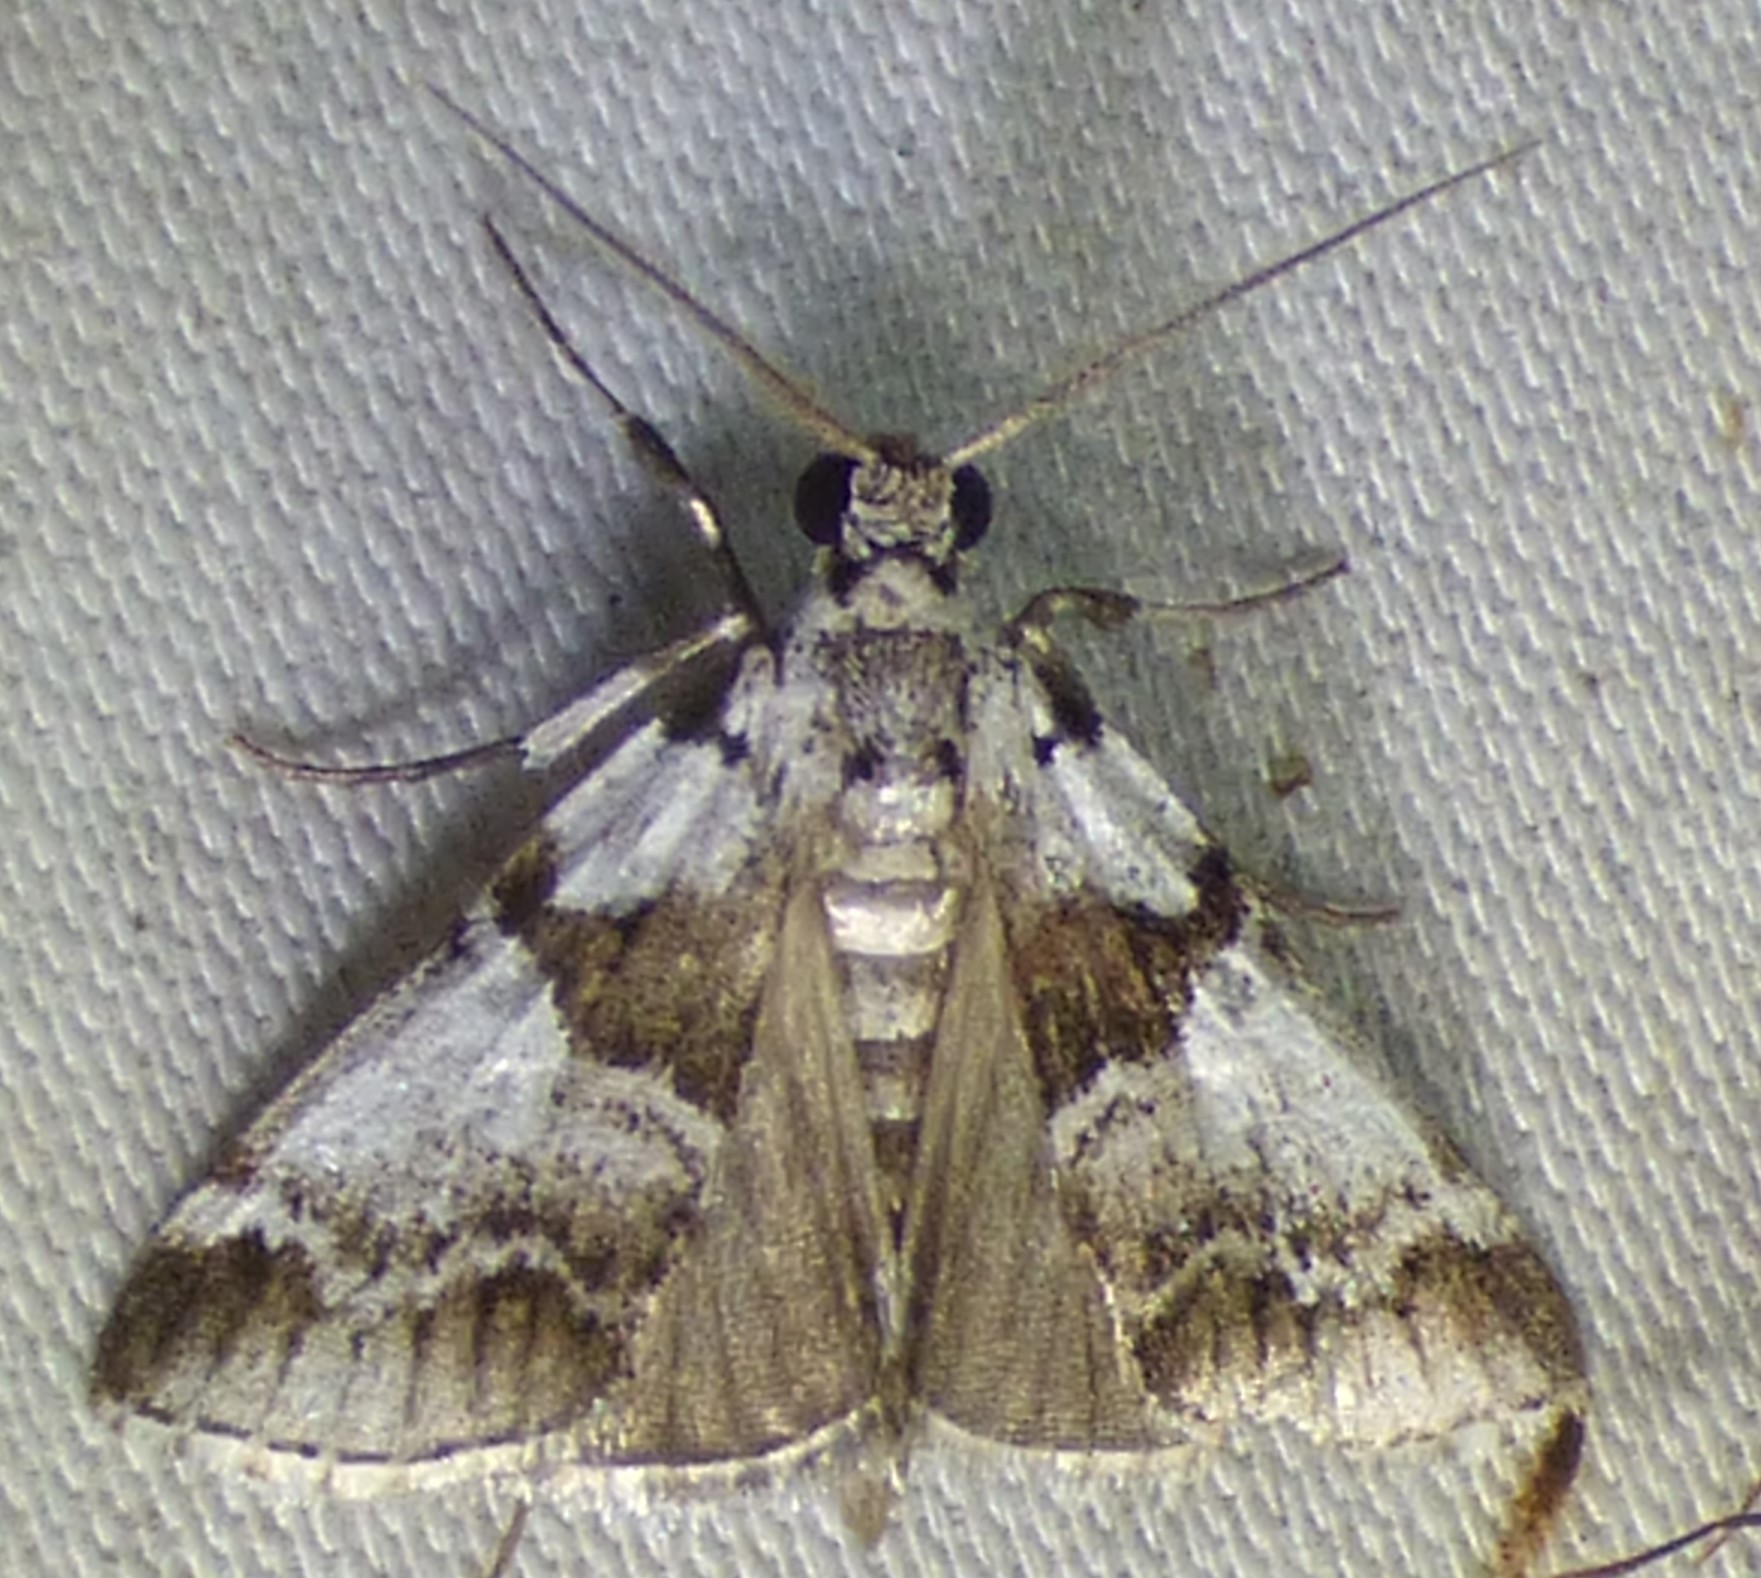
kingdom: Animalia
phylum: Arthropoda
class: Insecta
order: Lepidoptera
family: Pyralidae
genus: Tallula
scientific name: Tallula atrifascialis
